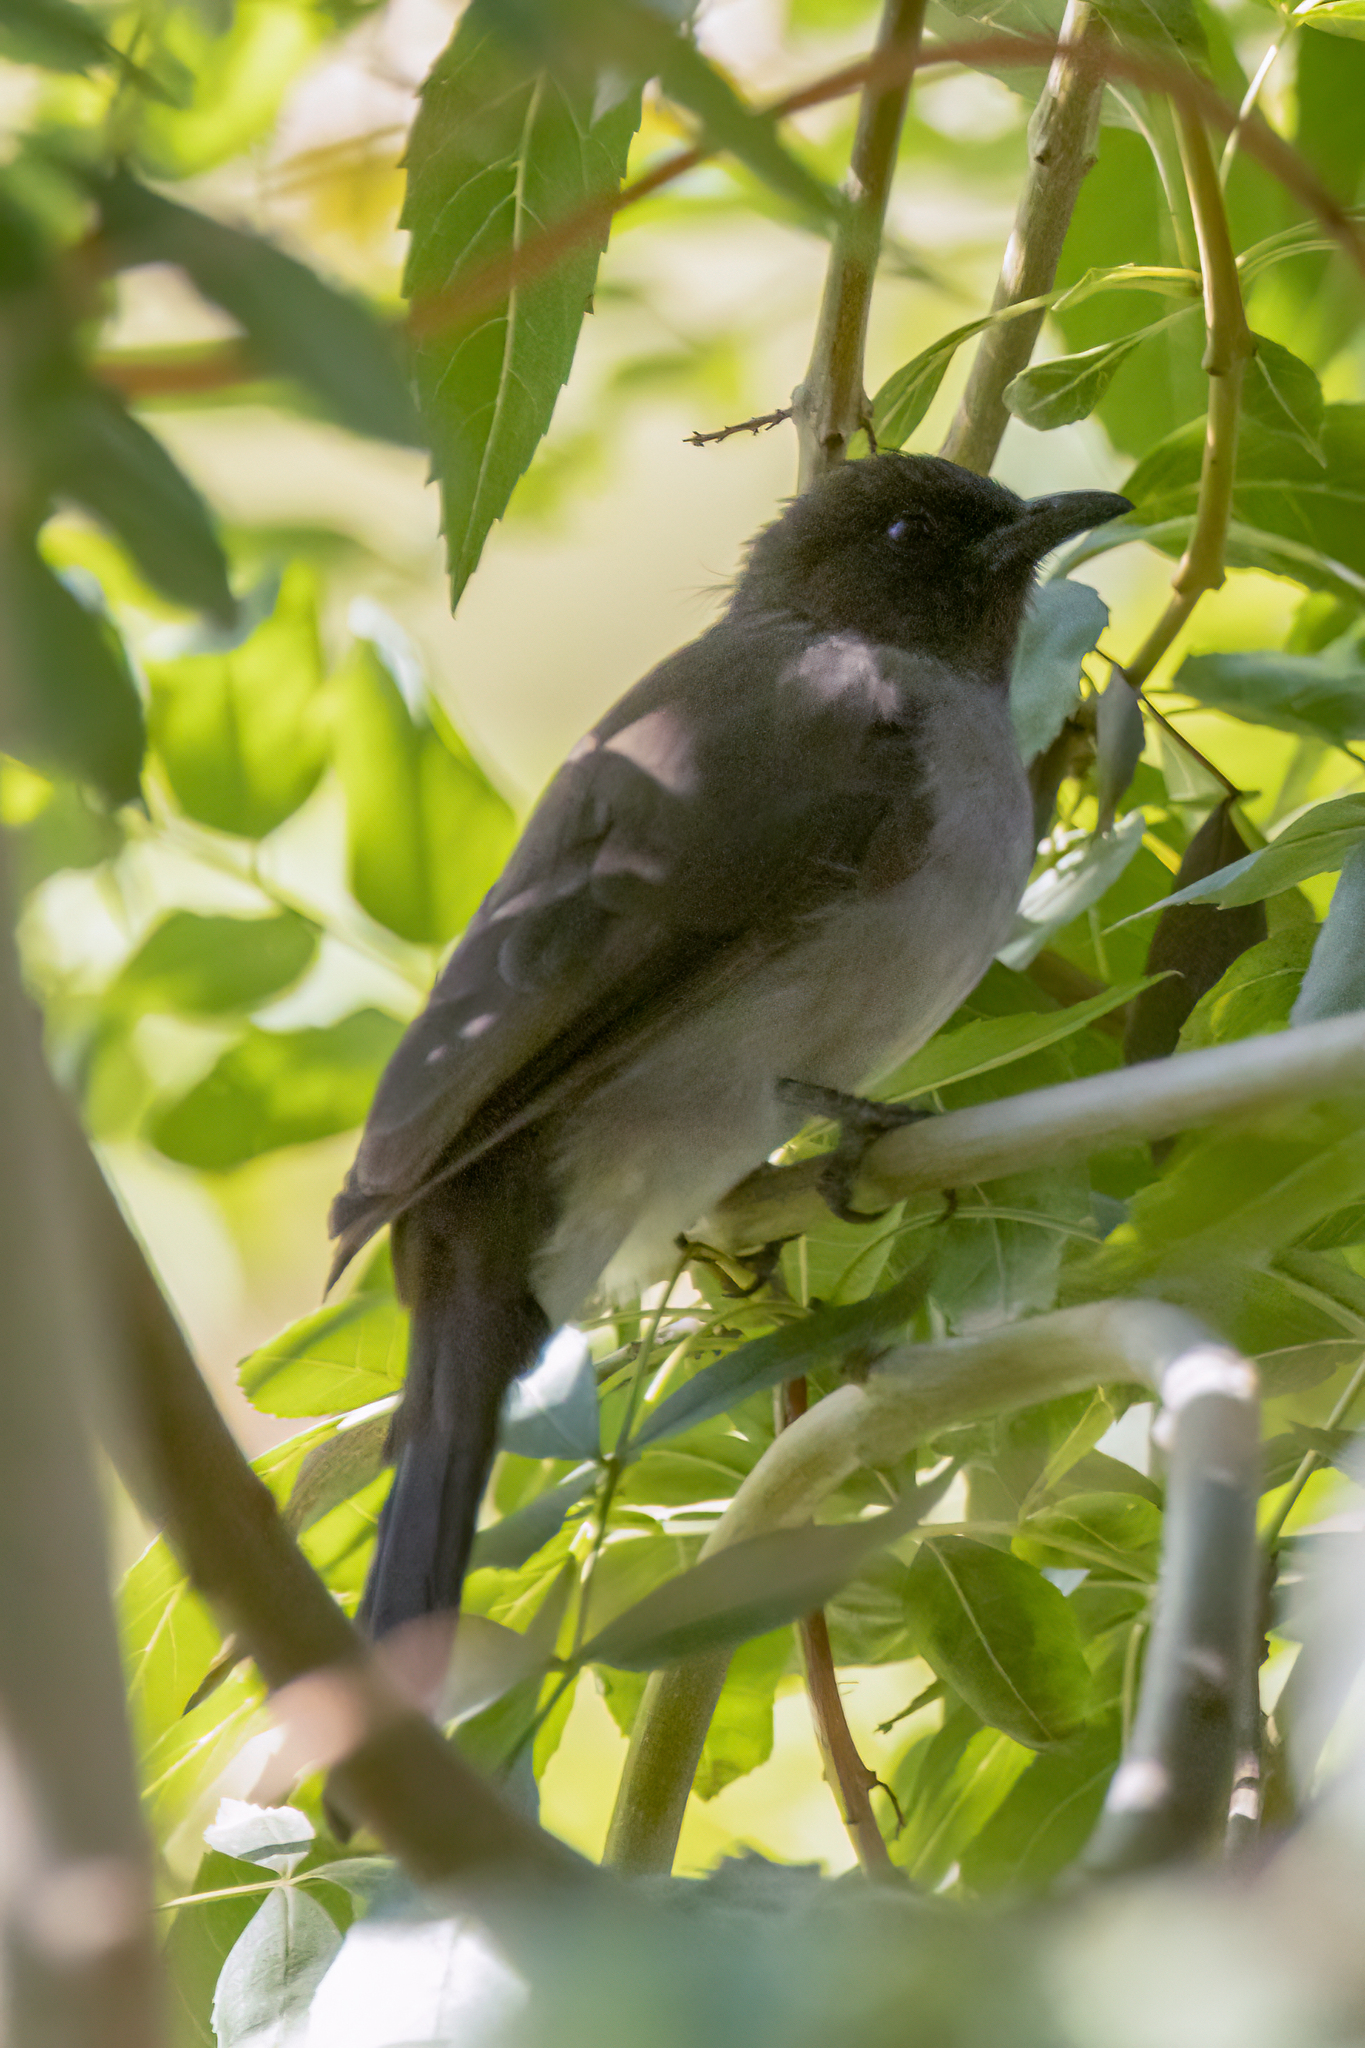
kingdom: Animalia
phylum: Chordata
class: Aves
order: Passeriformes
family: Pycnonotidae
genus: Pycnonotus
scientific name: Pycnonotus barbatus
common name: Common bulbul
